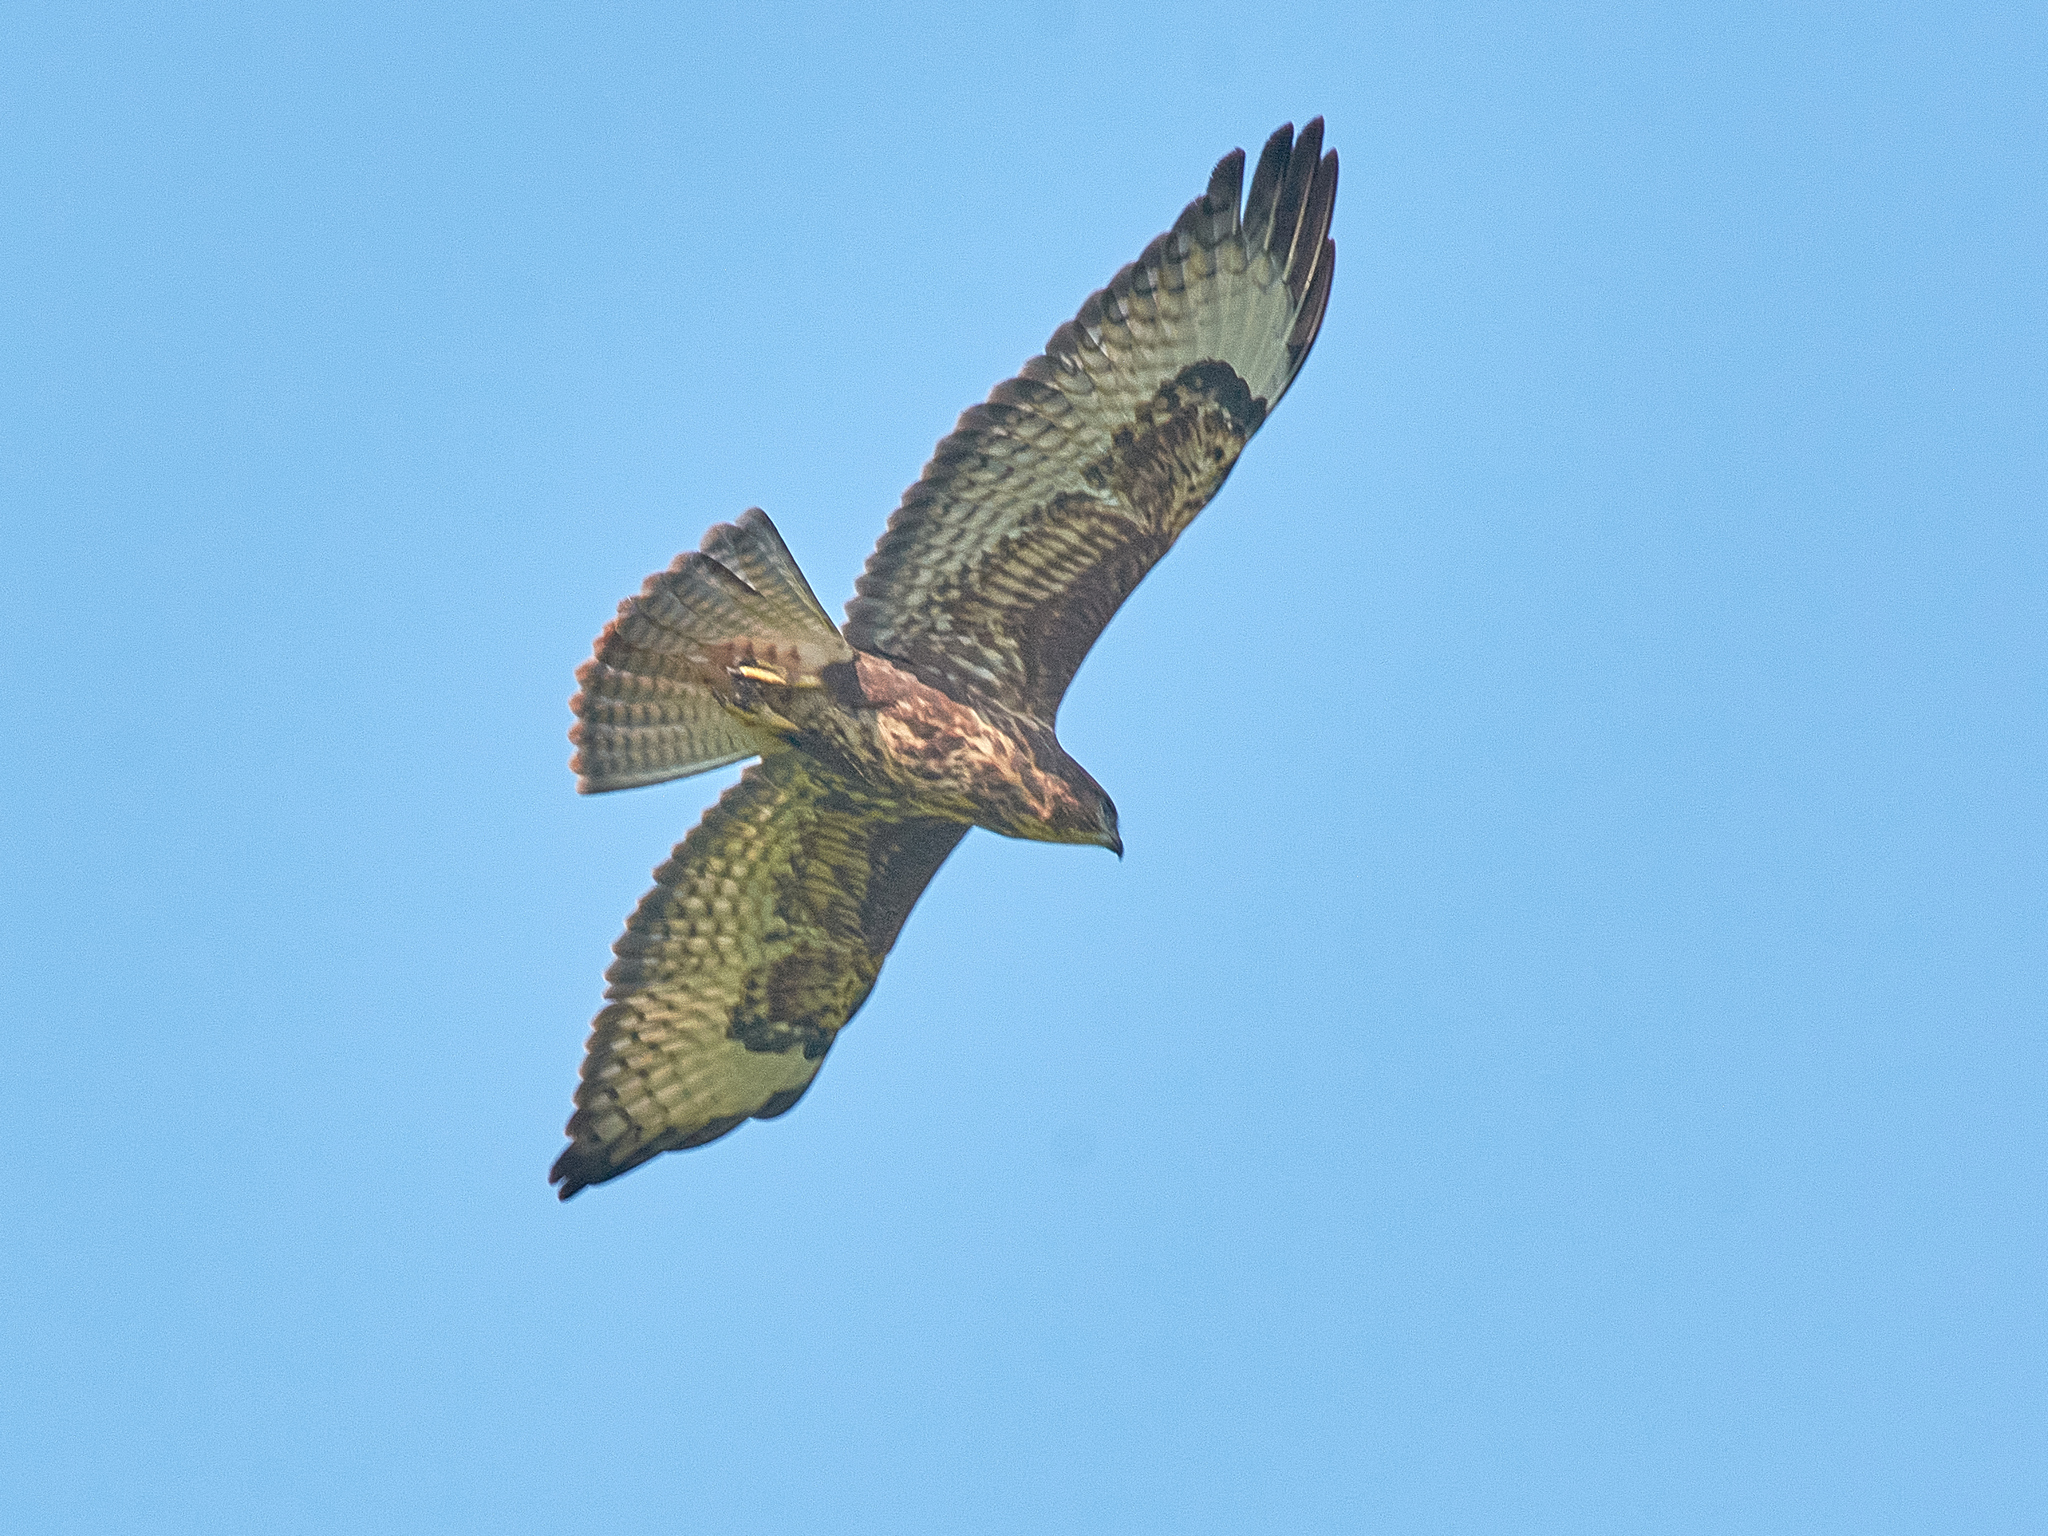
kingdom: Animalia
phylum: Chordata
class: Aves
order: Accipitriformes
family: Accipitridae
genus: Buteo
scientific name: Buteo buteo
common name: Common buzzard
